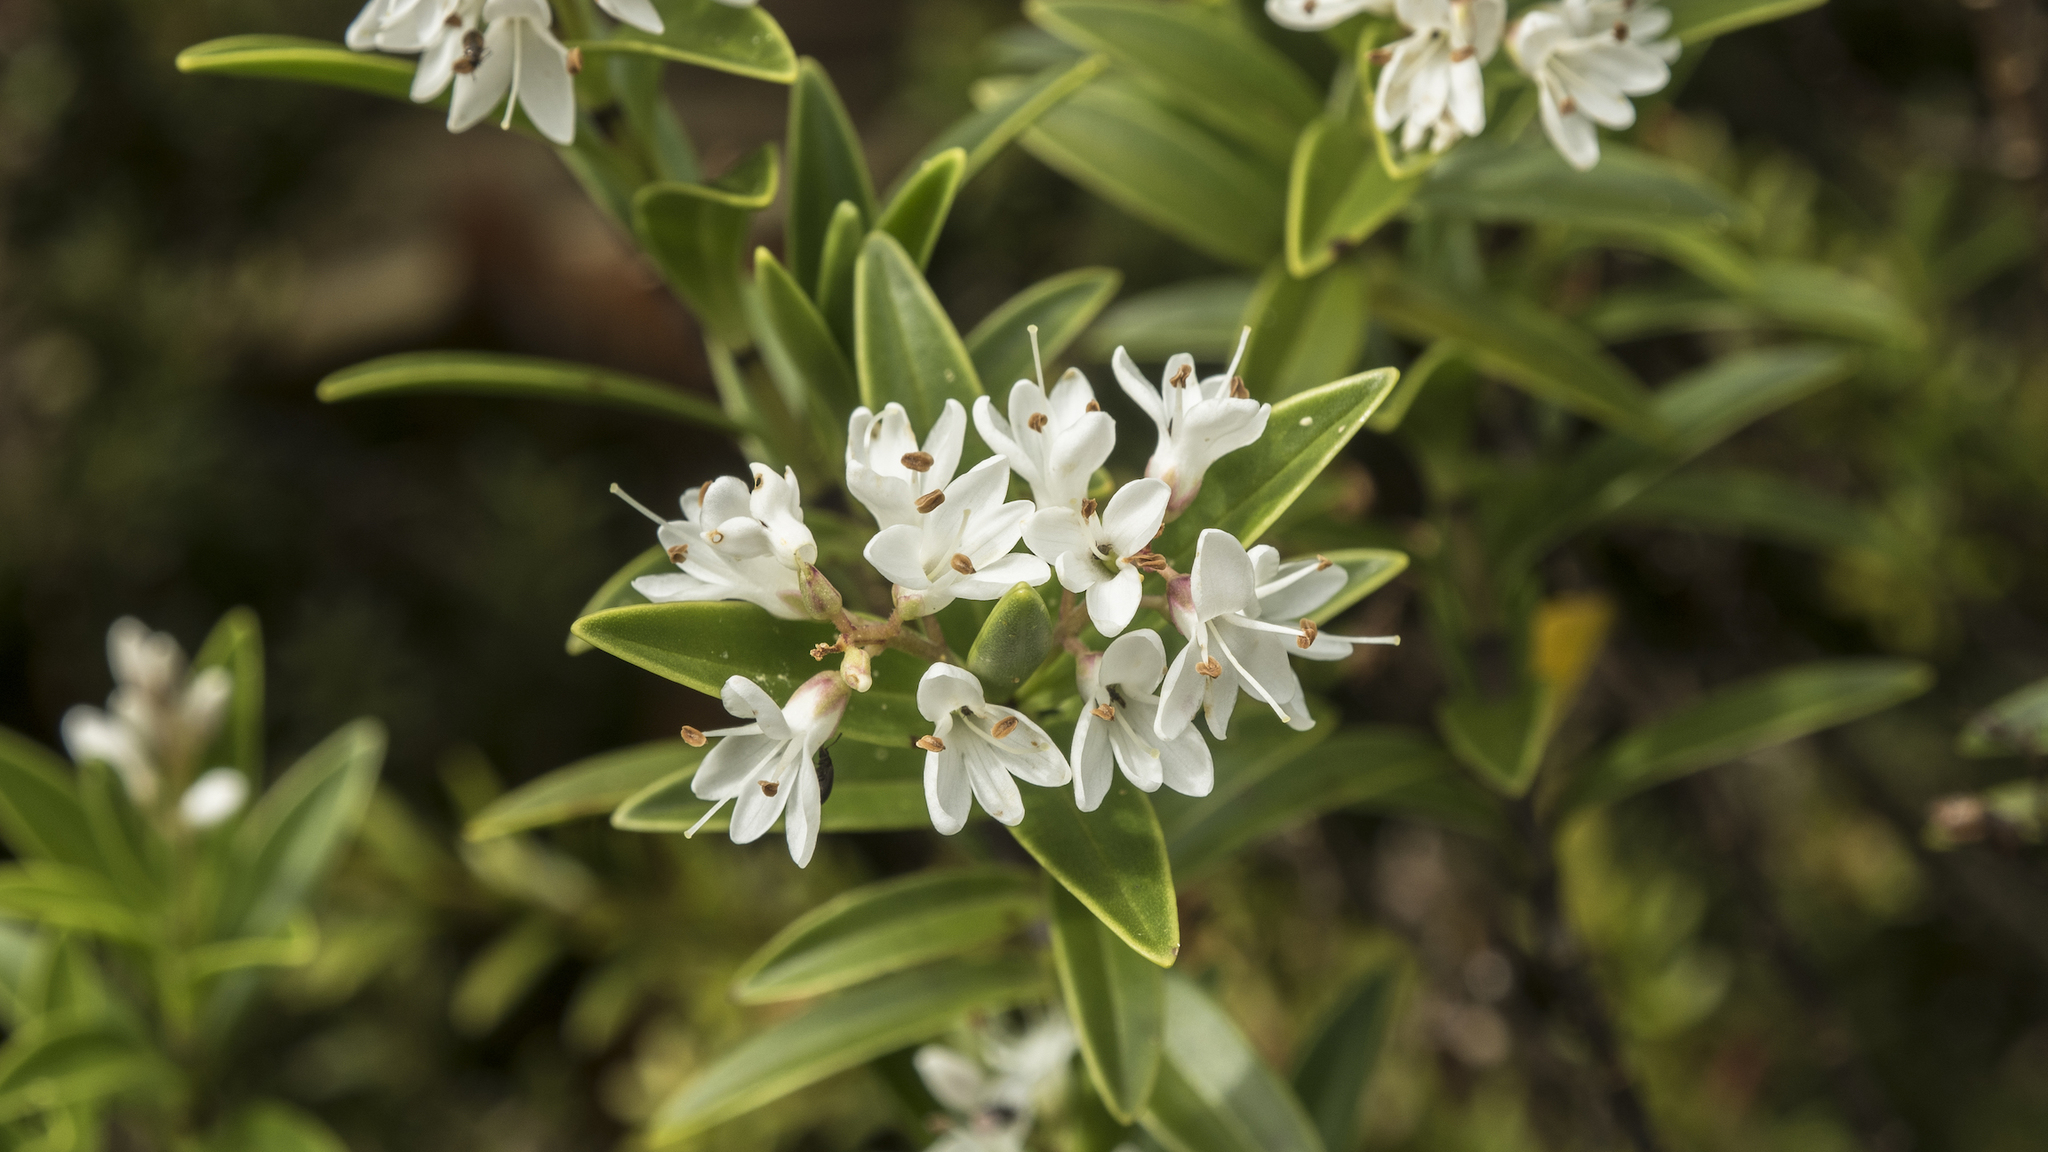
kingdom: Plantae
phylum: Tracheophyta
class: Magnoliopsida
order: Lamiales
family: Plantaginaceae
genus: Veronica
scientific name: Veronica subalpina
